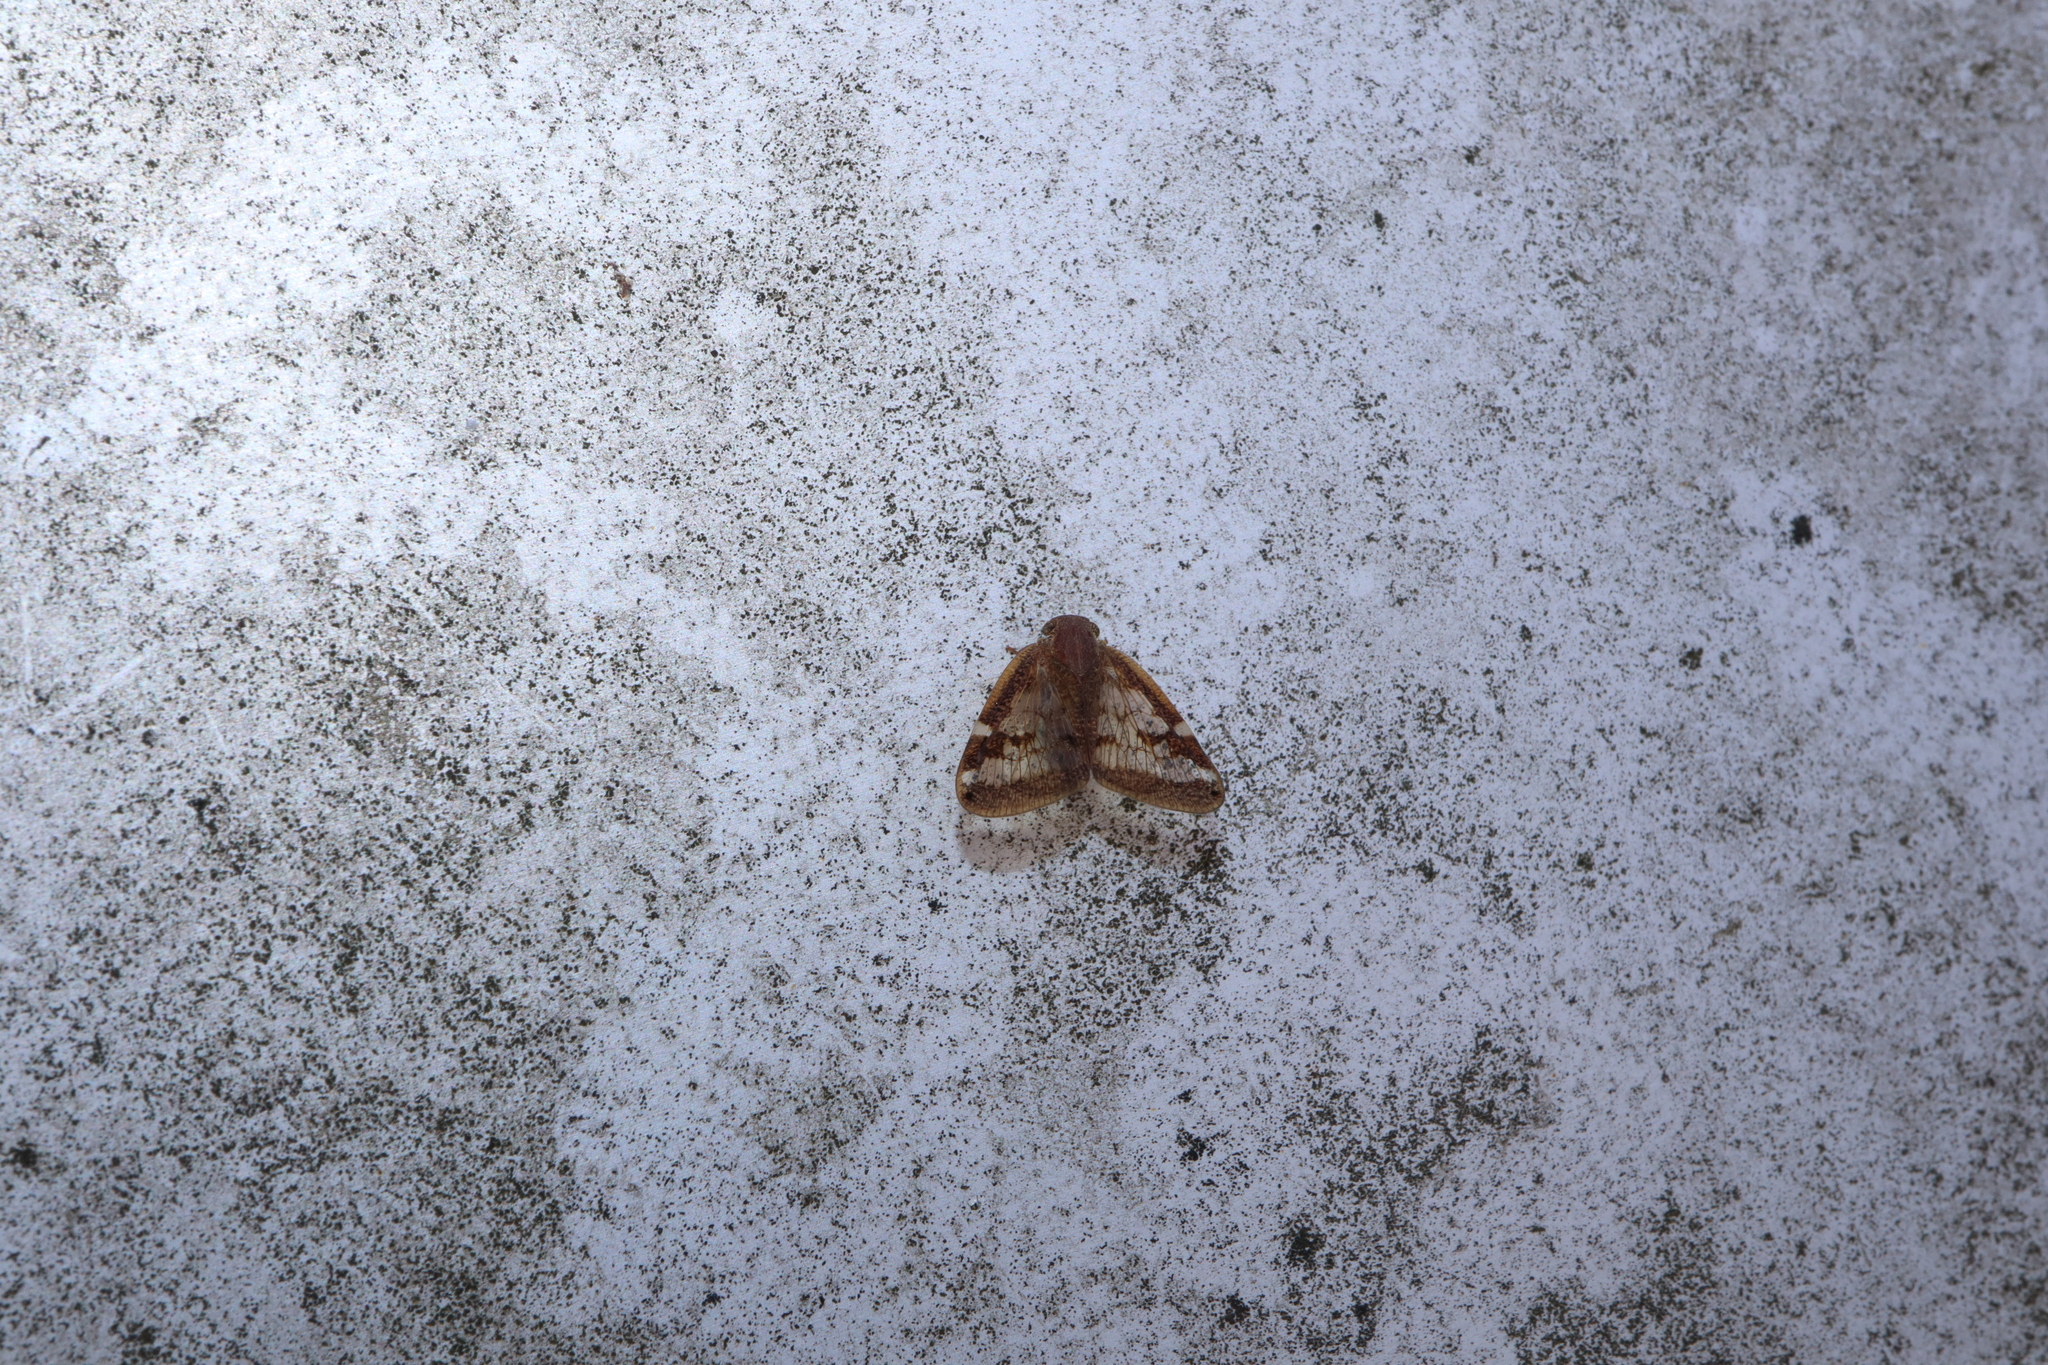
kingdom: Animalia
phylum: Arthropoda
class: Insecta
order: Hemiptera
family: Ricaniidae
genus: Scolypopa
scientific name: Scolypopa australis
